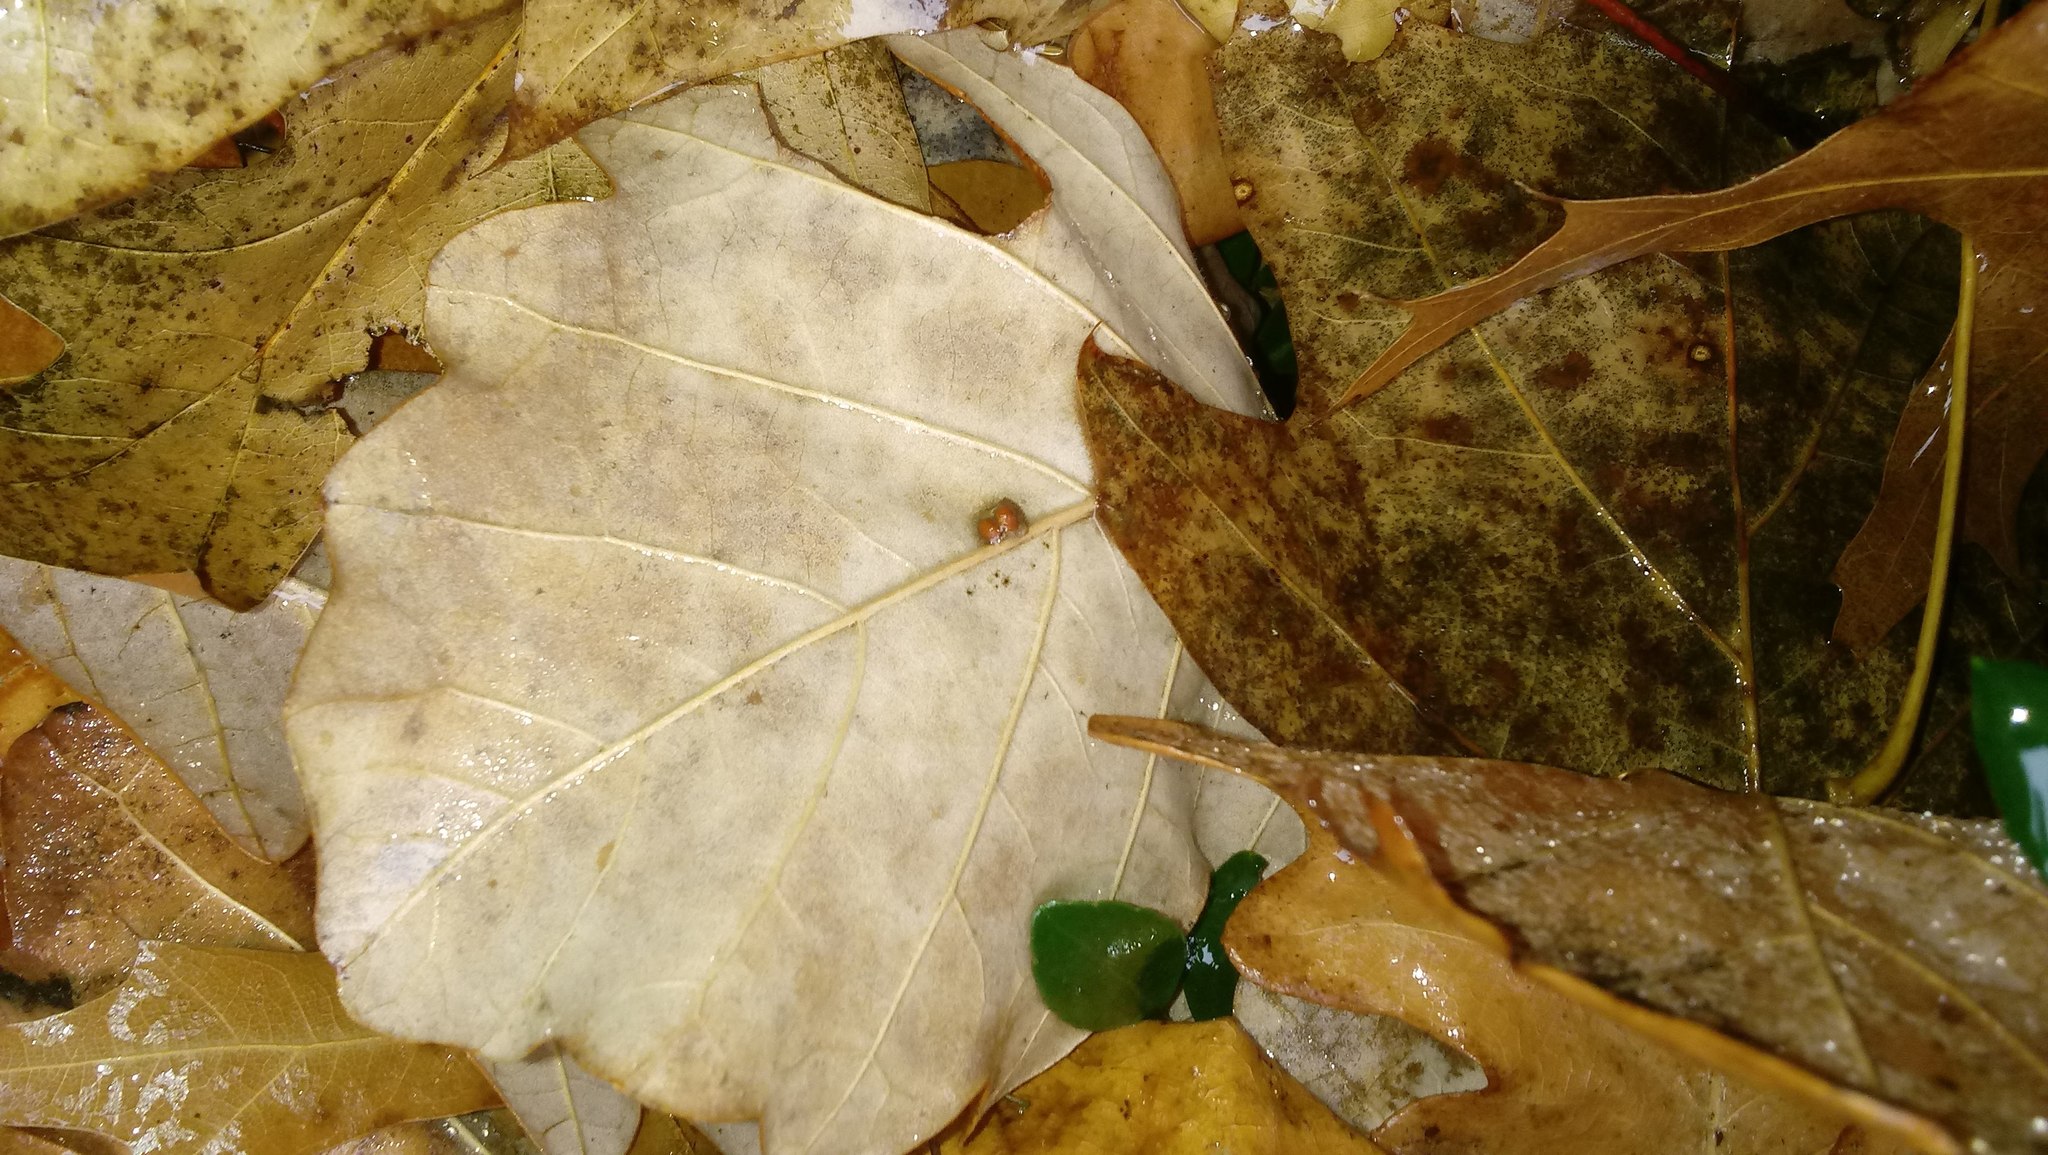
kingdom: Animalia
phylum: Arthropoda
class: Insecta
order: Hymenoptera
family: Cynipidae
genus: Andricus
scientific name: Andricus Druon ignotum
